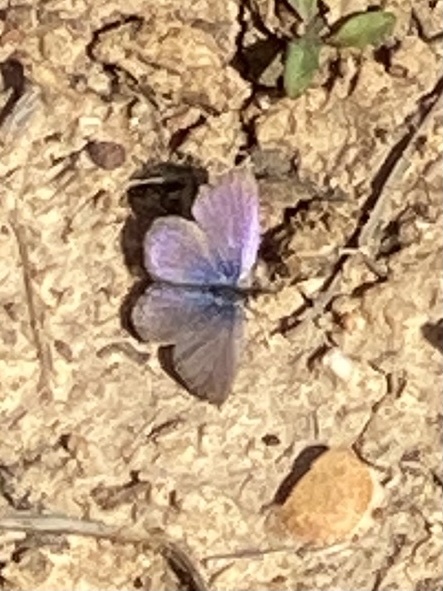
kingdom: Animalia
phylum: Arthropoda
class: Insecta
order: Lepidoptera
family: Lycaenidae
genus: Zizeeria
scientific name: Zizeeria knysna
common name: African grass blue
